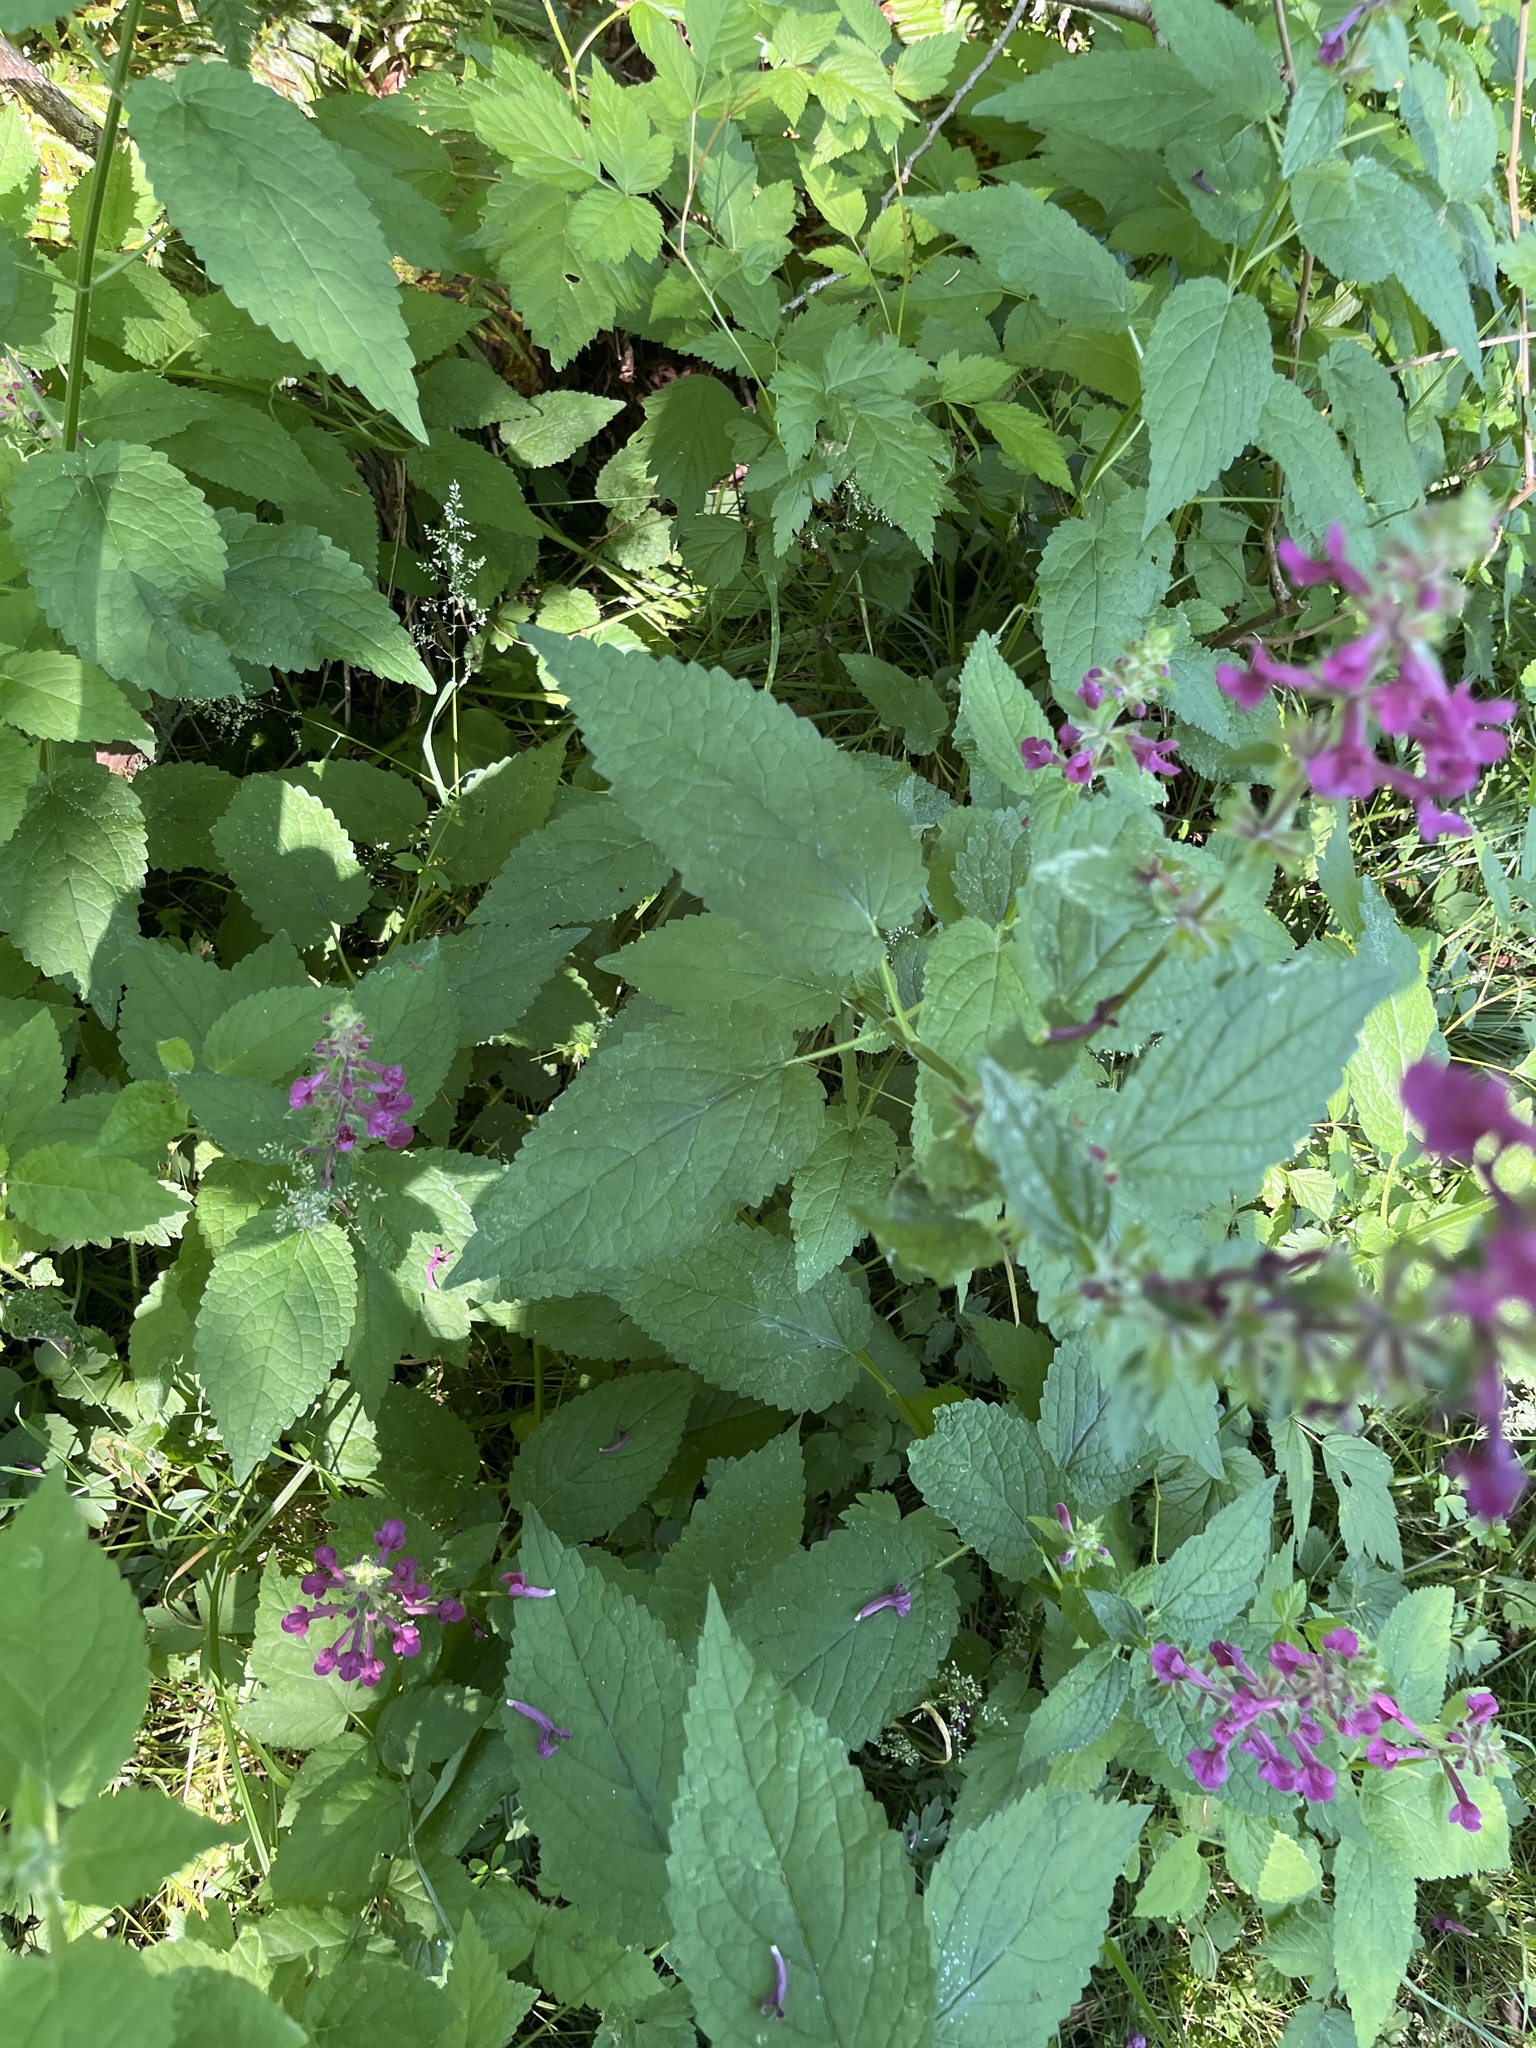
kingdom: Plantae
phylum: Tracheophyta
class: Magnoliopsida
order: Lamiales
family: Lamiaceae
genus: Stachys
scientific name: Stachys chamissonis
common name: Coastal hedge-nettle
